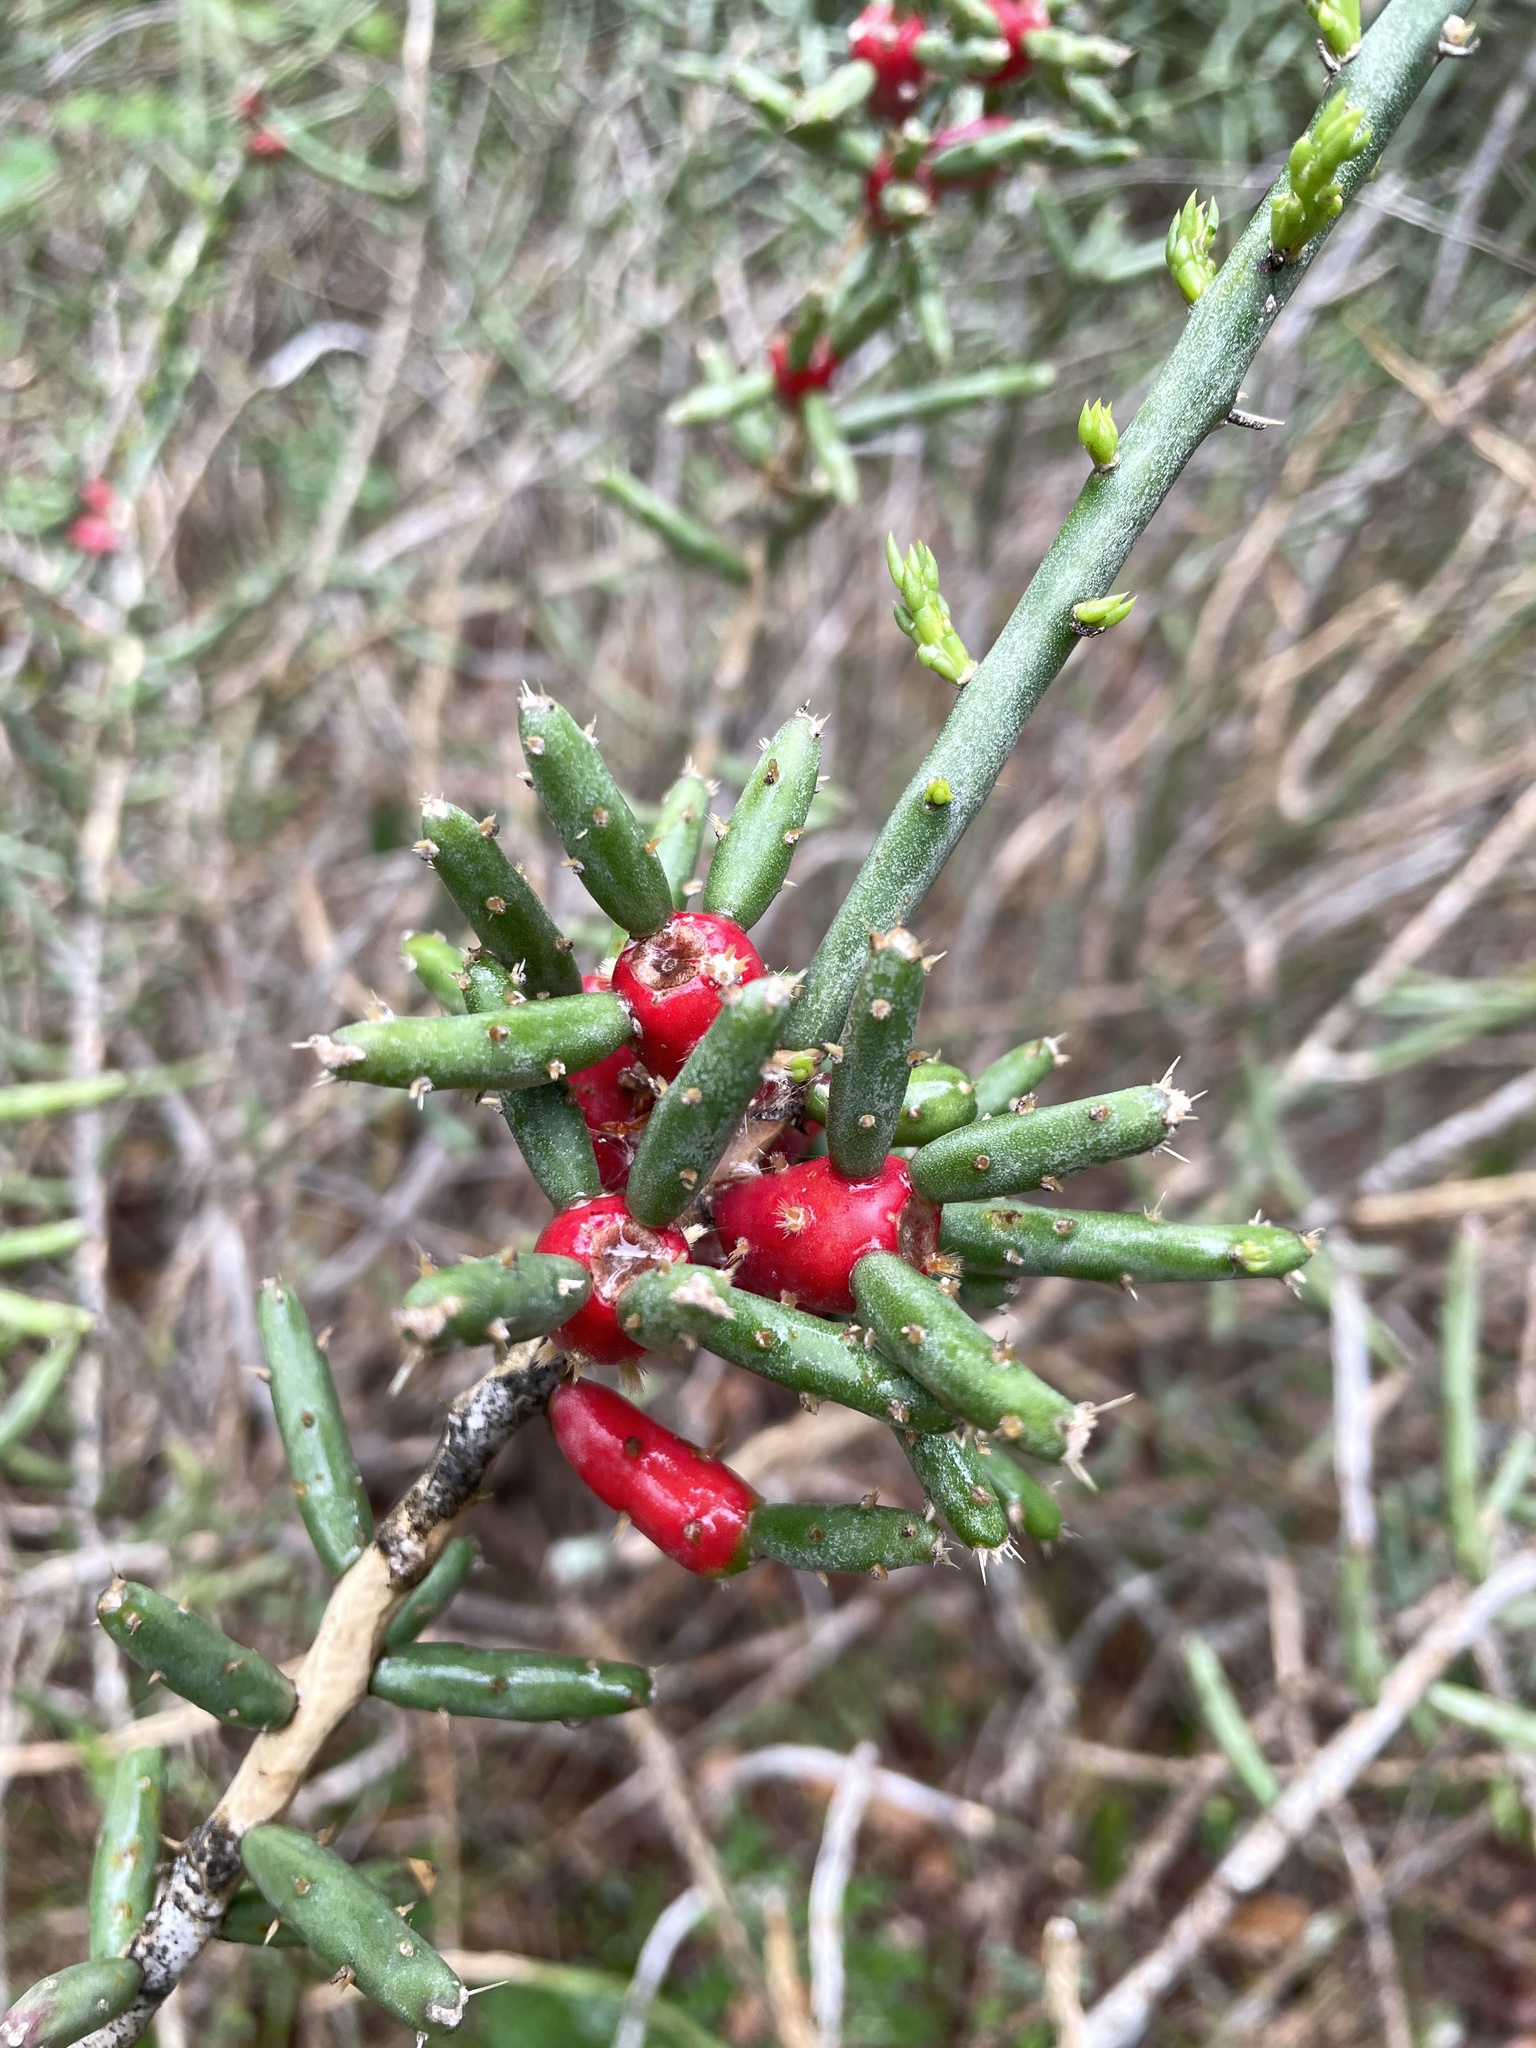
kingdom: Plantae
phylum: Tracheophyta
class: Magnoliopsida
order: Caryophyllales
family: Cactaceae
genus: Cylindropuntia
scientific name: Cylindropuntia leptocaulis
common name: Christmas cactus
